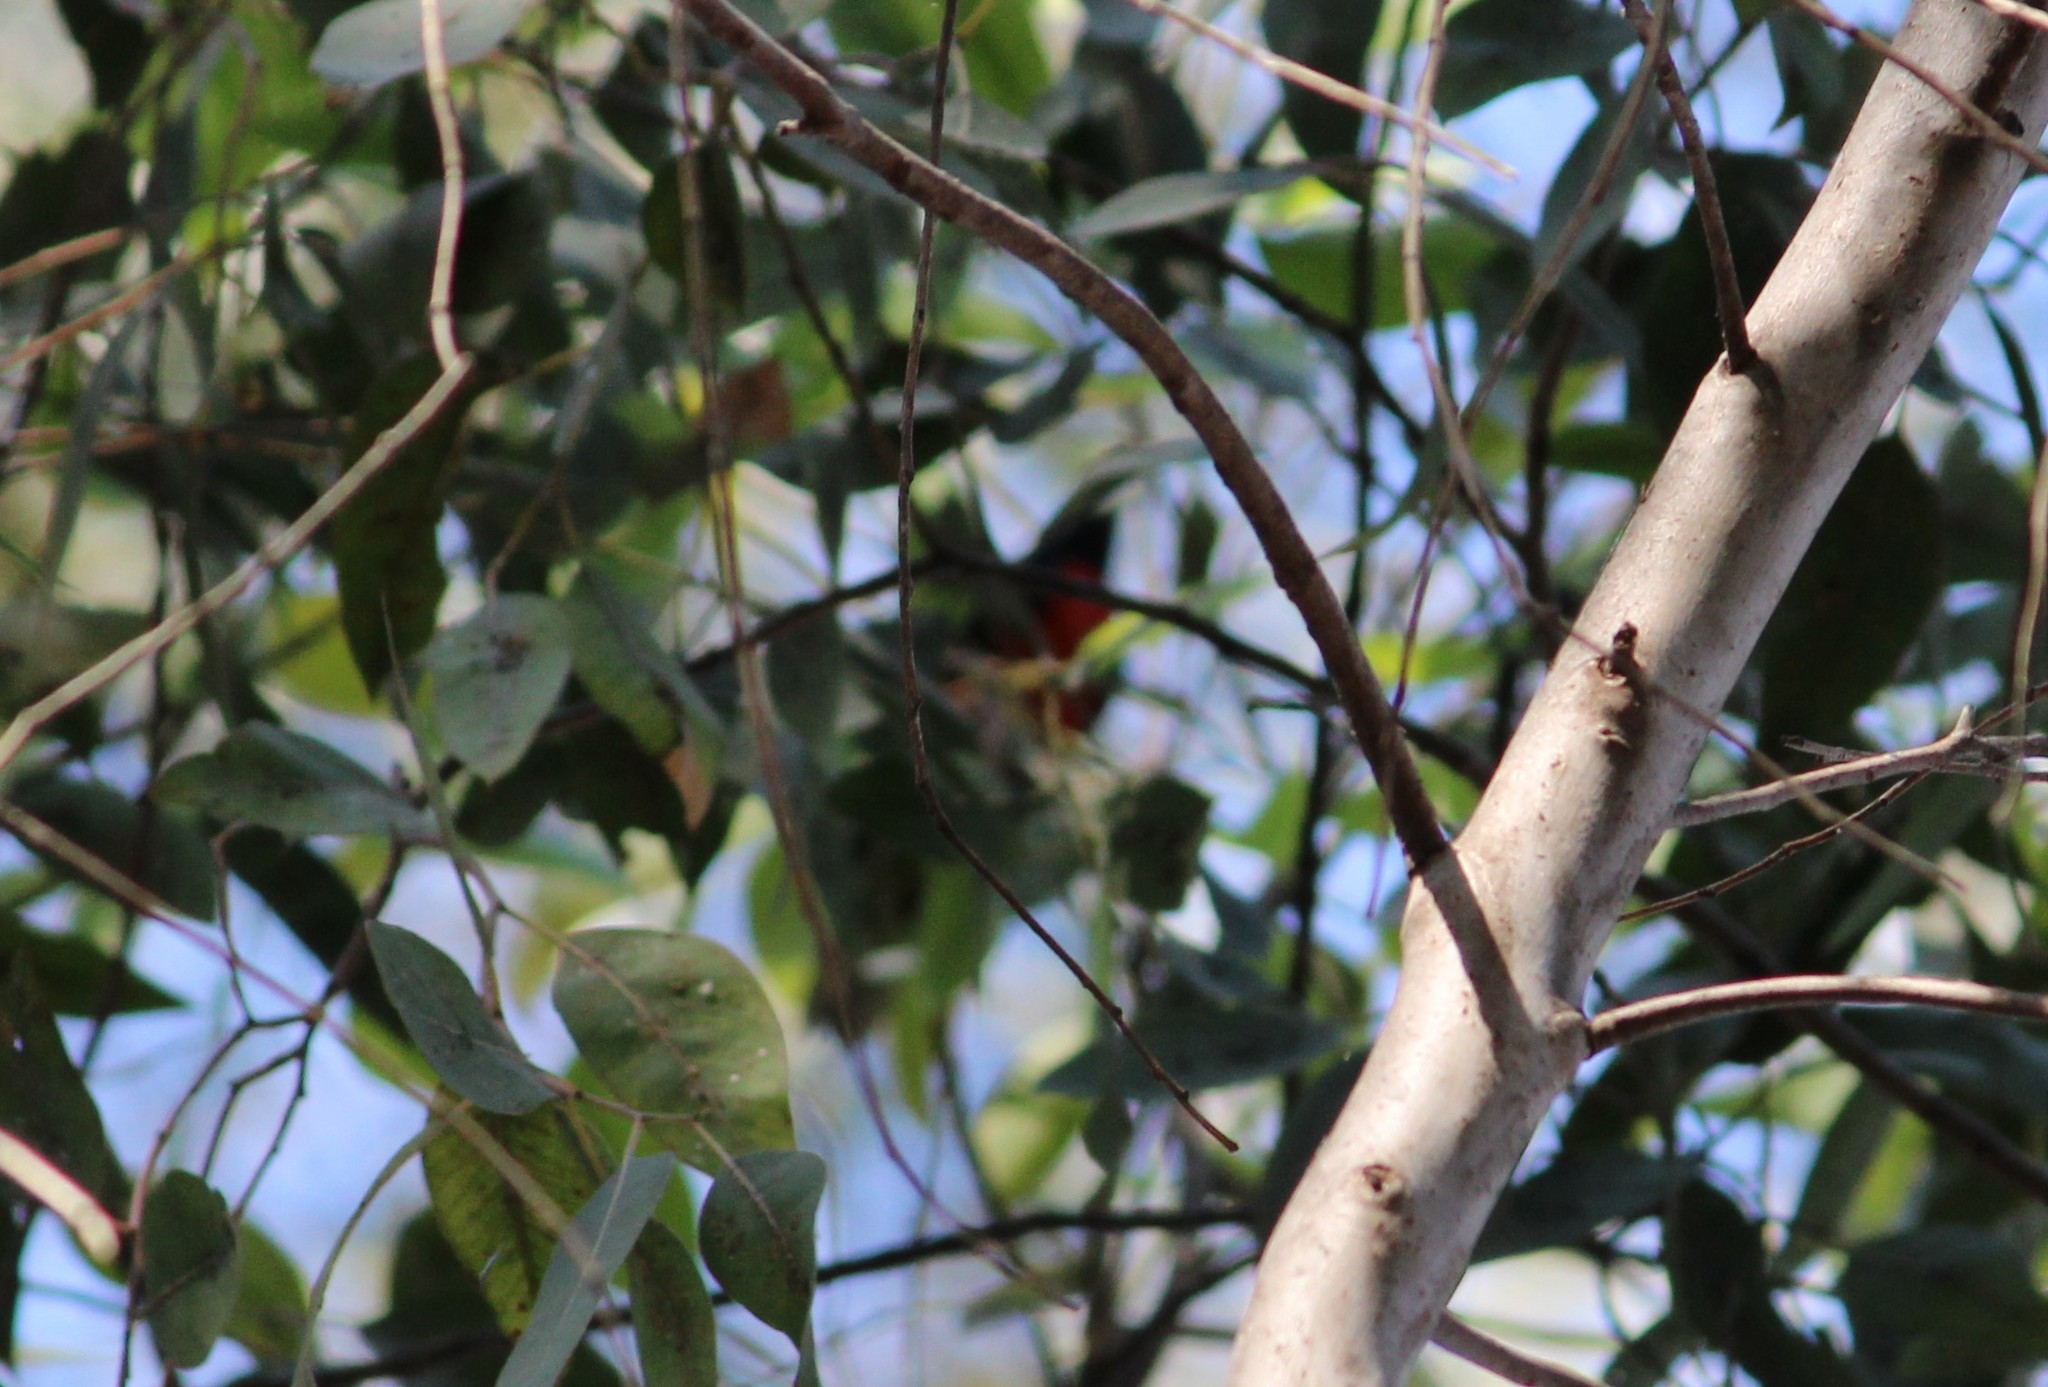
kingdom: Animalia
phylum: Chordata
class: Aves
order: Passeriformes
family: Parulidae
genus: Myioborus
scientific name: Myioborus miniatus
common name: Slate-throated redstart
